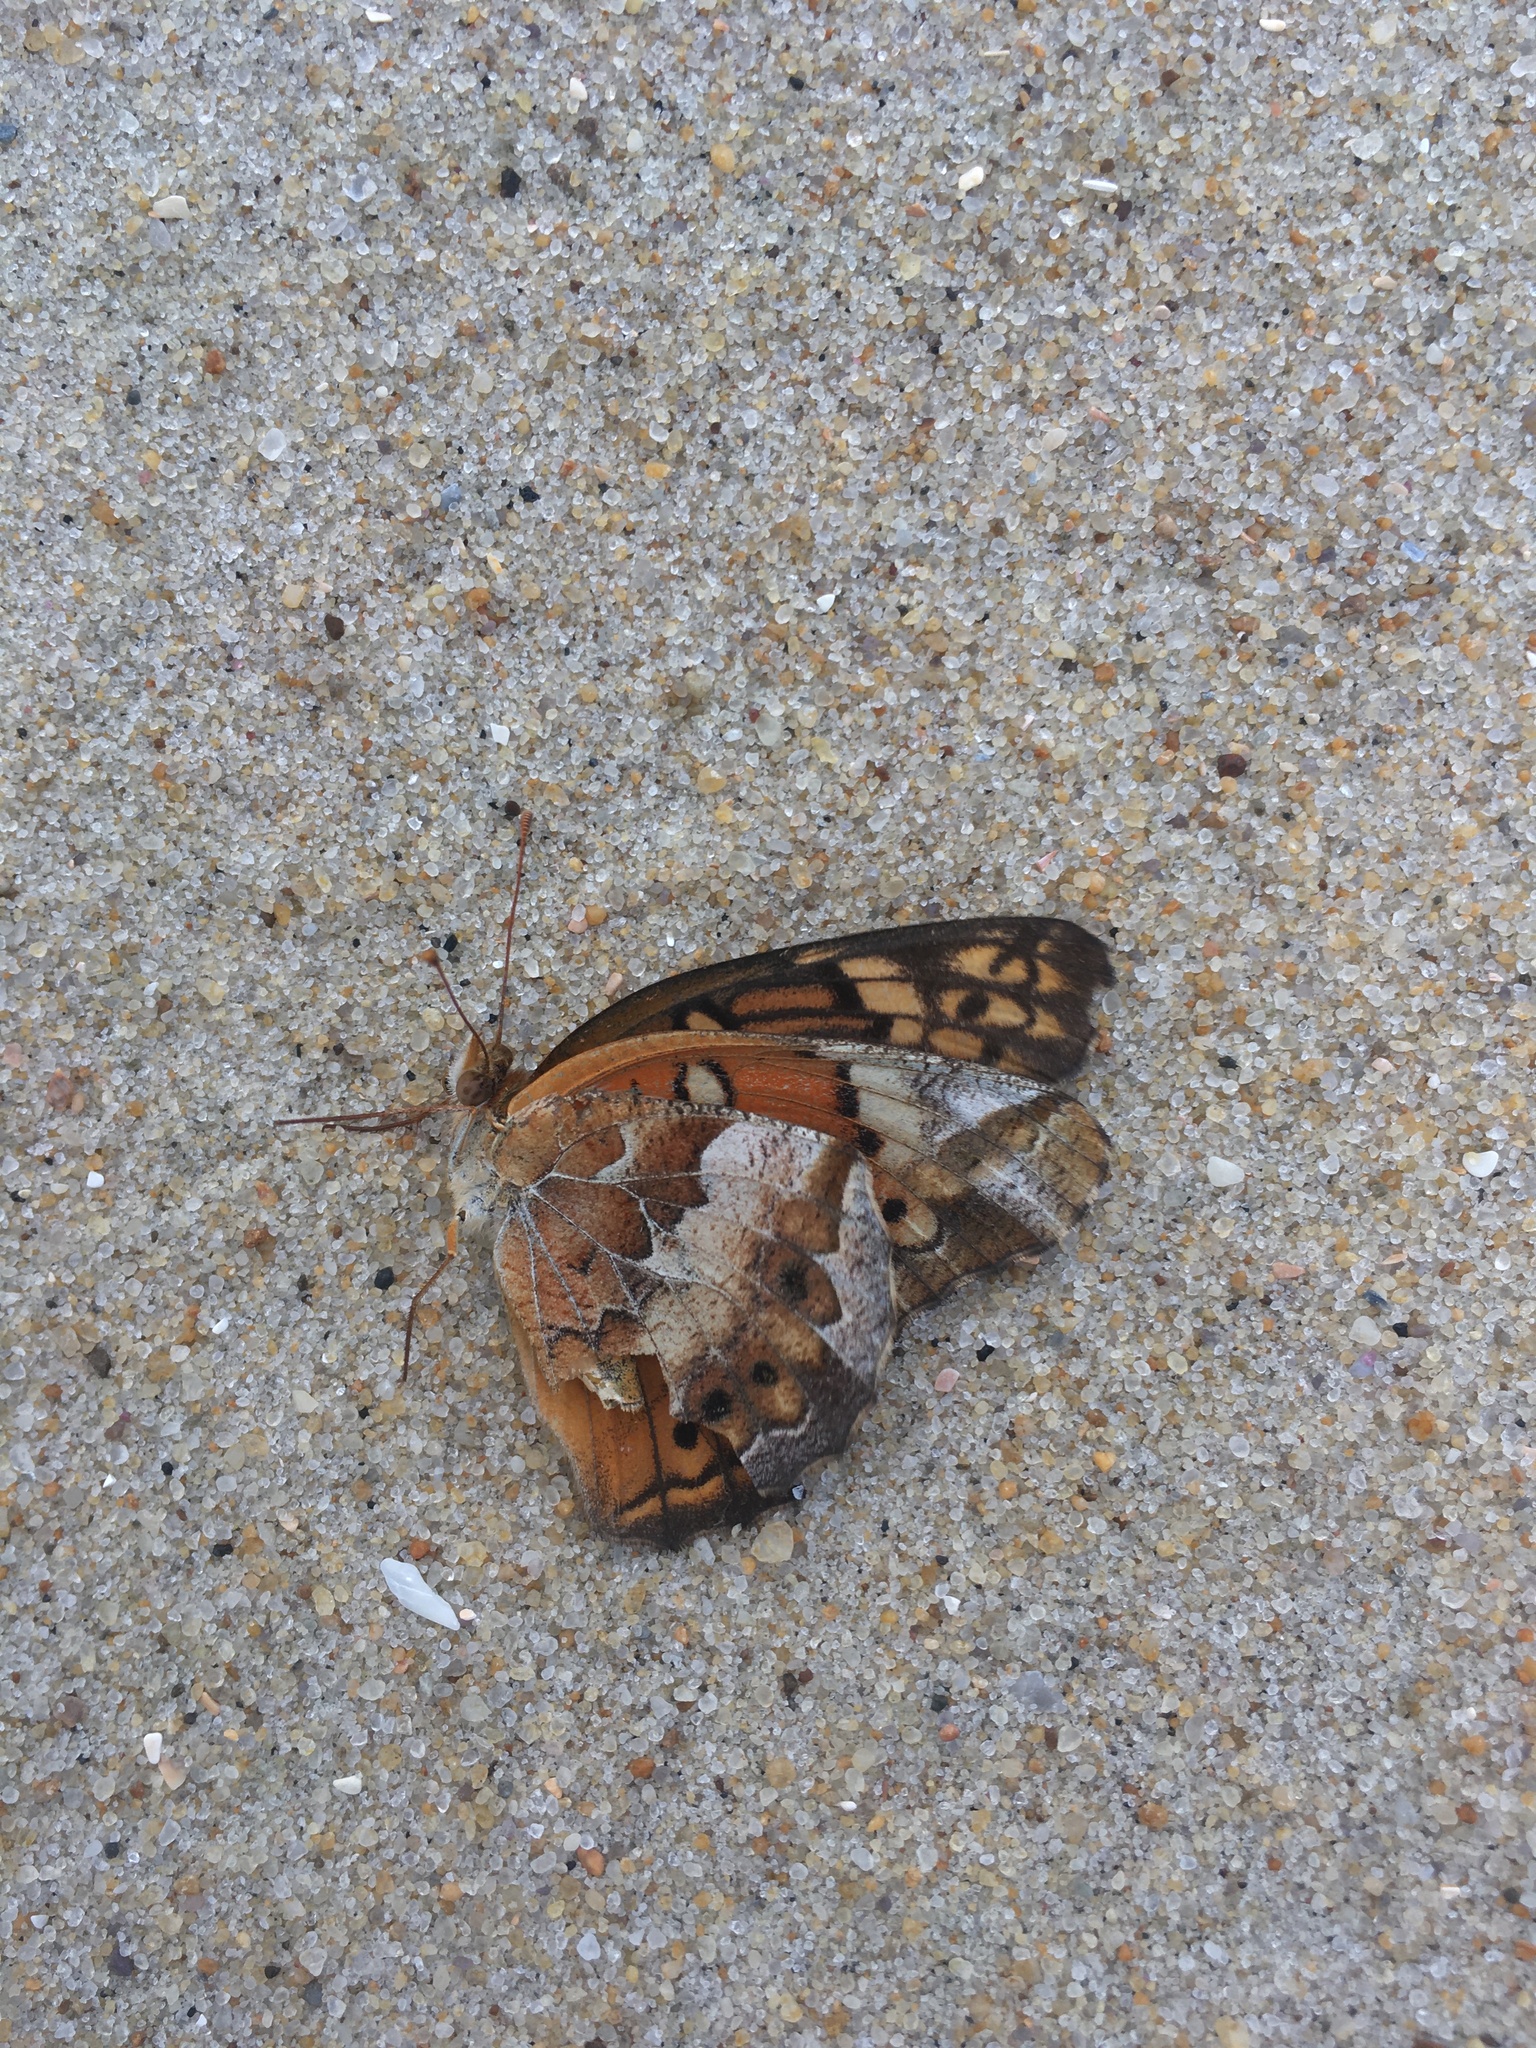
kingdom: Animalia
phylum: Arthropoda
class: Insecta
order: Lepidoptera
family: Nymphalidae
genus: Euptoieta
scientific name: Euptoieta claudia
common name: Variegated fritillary
